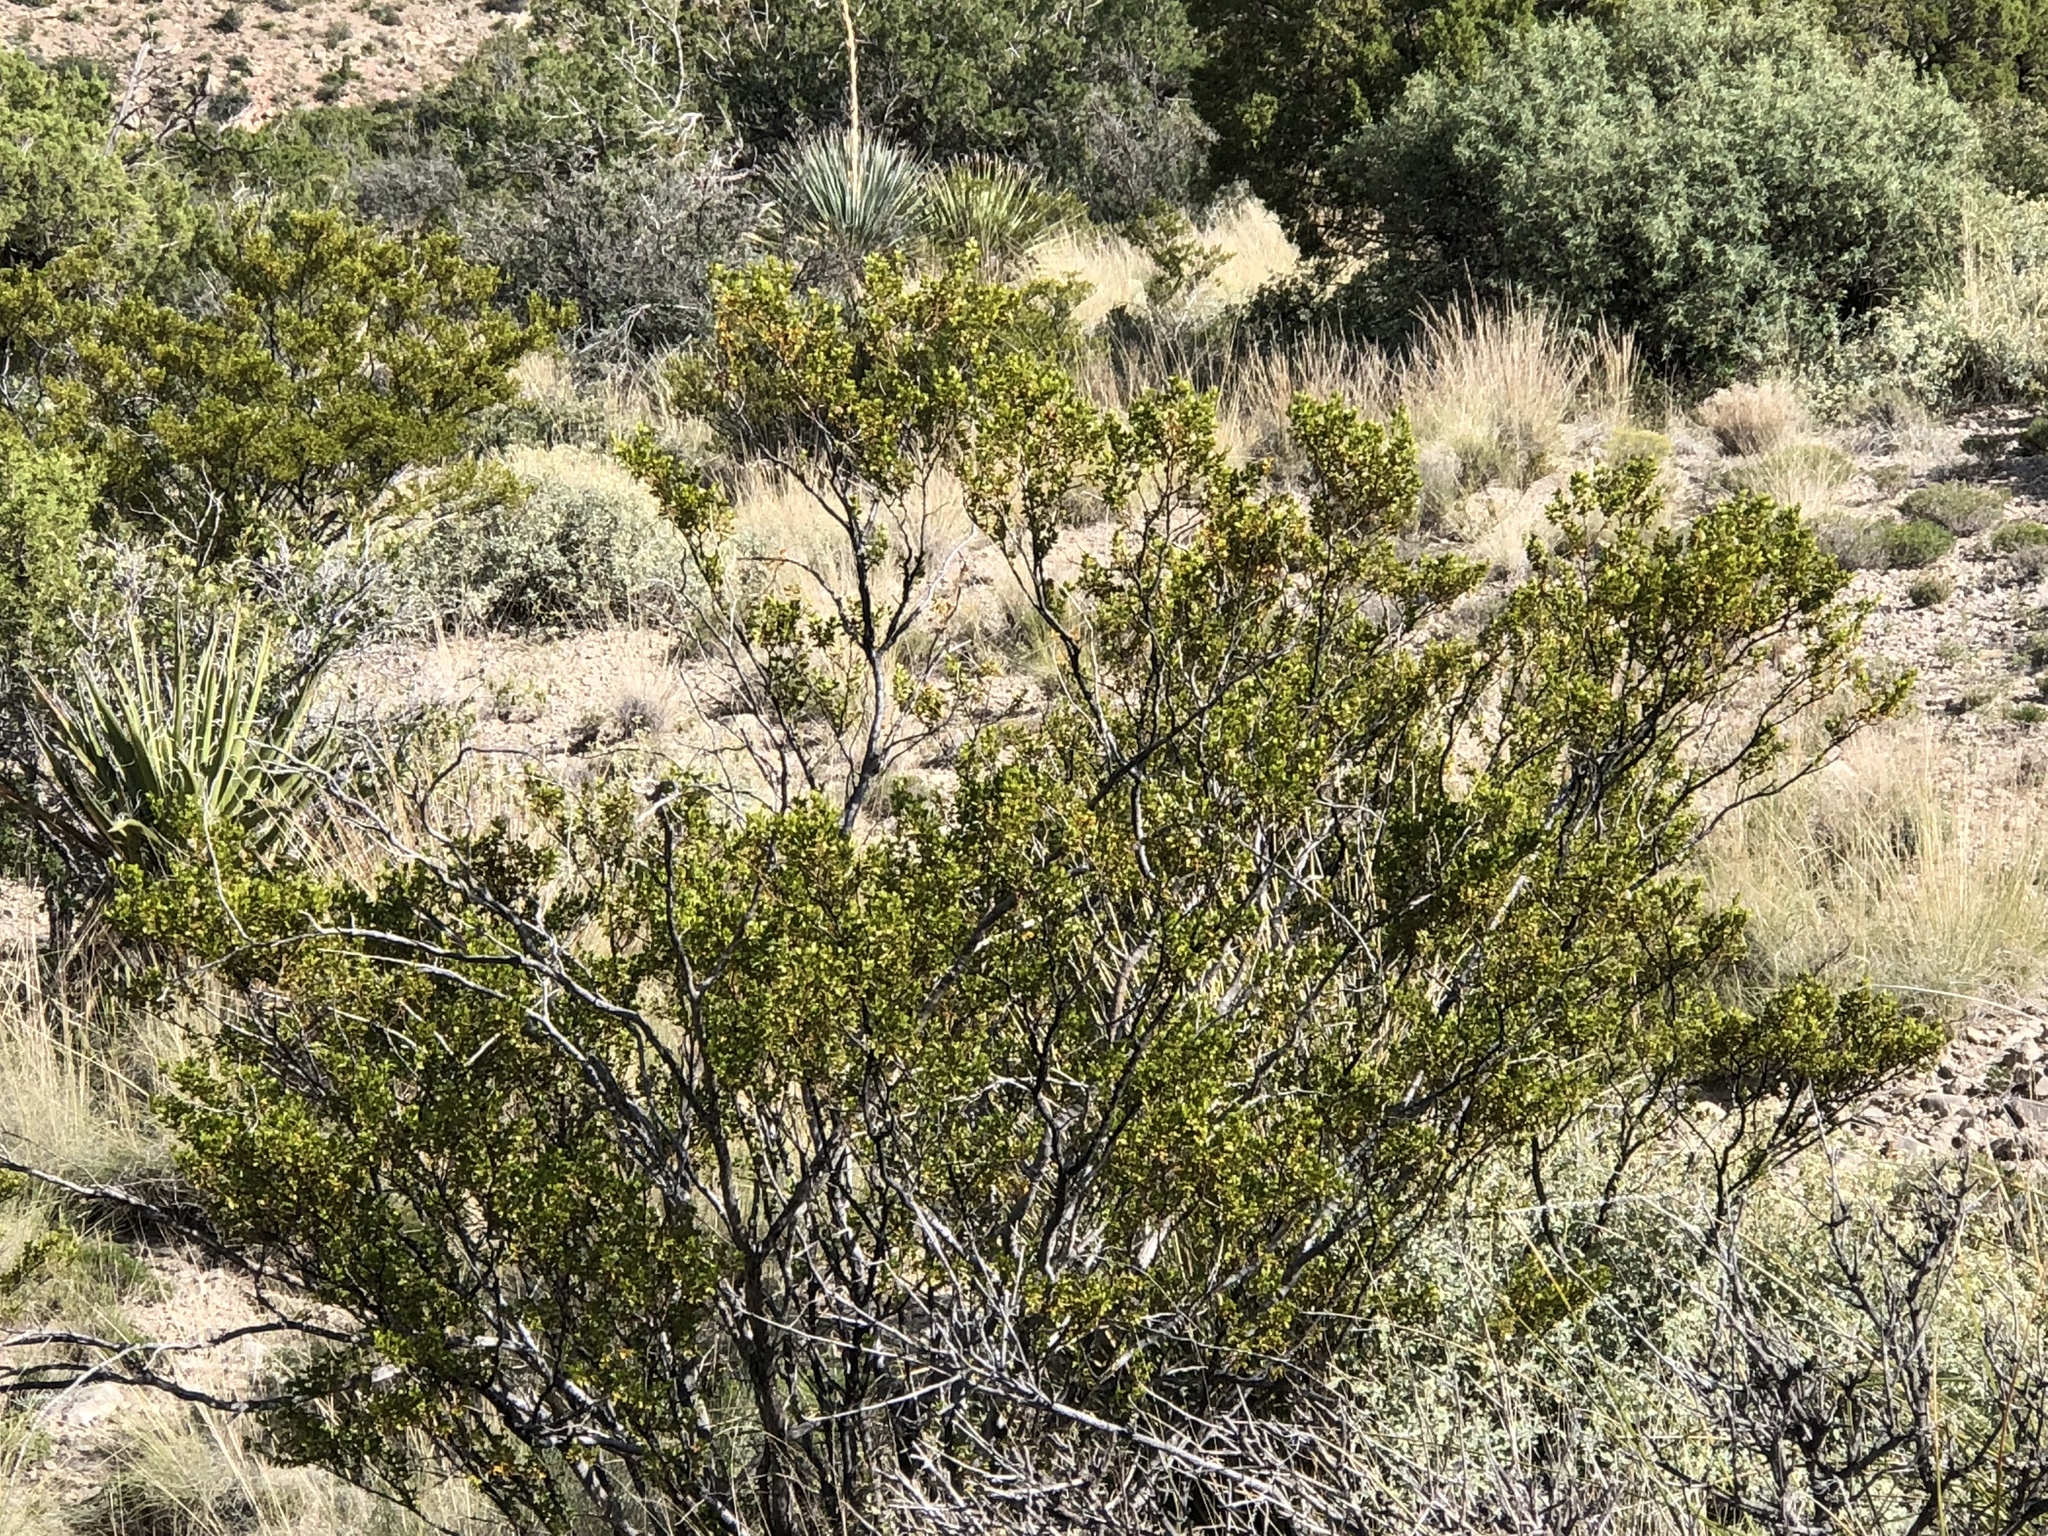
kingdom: Plantae
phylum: Tracheophyta
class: Magnoliopsida
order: Zygophyllales
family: Zygophyllaceae
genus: Larrea
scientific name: Larrea tridentata
